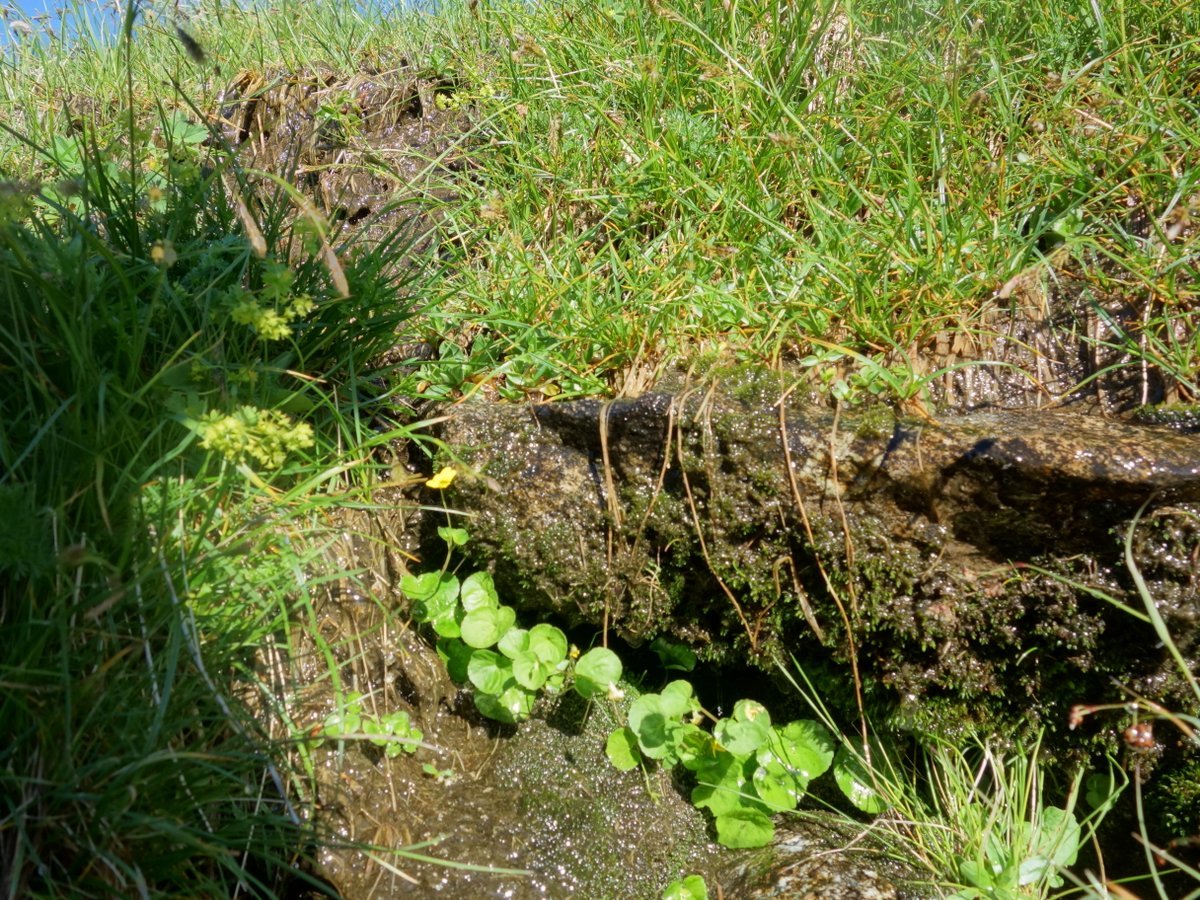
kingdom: Plantae
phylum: Tracheophyta
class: Magnoliopsida
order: Malpighiales
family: Violaceae
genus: Viola
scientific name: Viola biflora
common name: Alpine yellow violet
